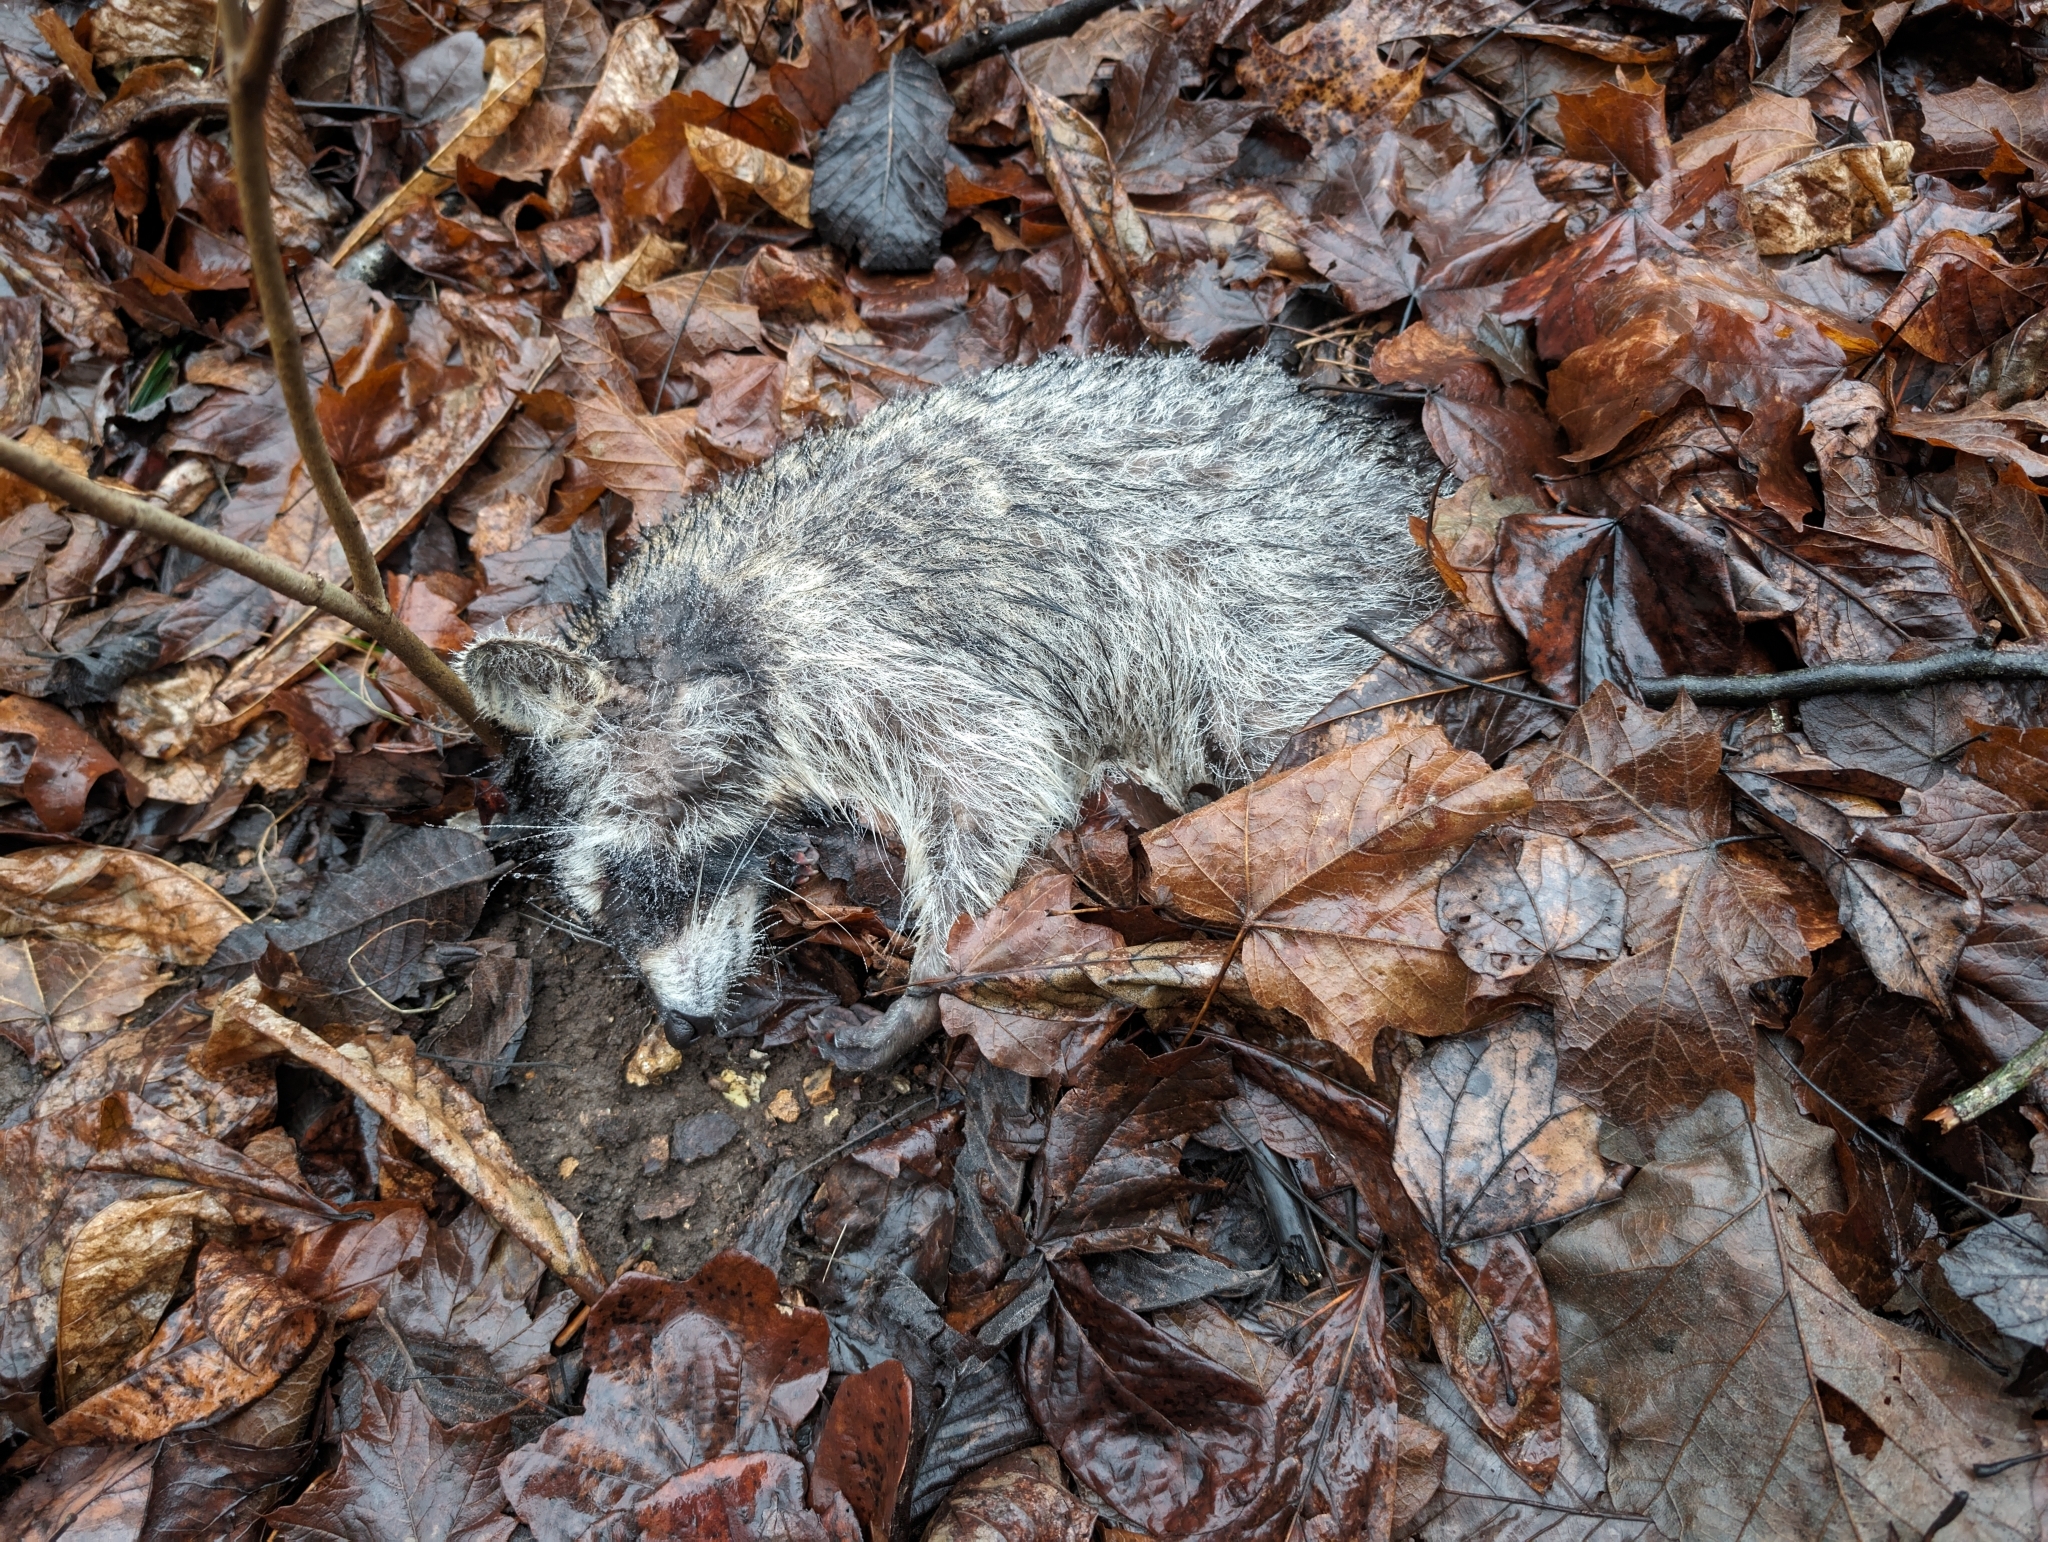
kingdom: Animalia
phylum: Chordata
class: Mammalia
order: Carnivora
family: Procyonidae
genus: Procyon
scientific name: Procyon lotor
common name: Raccoon
